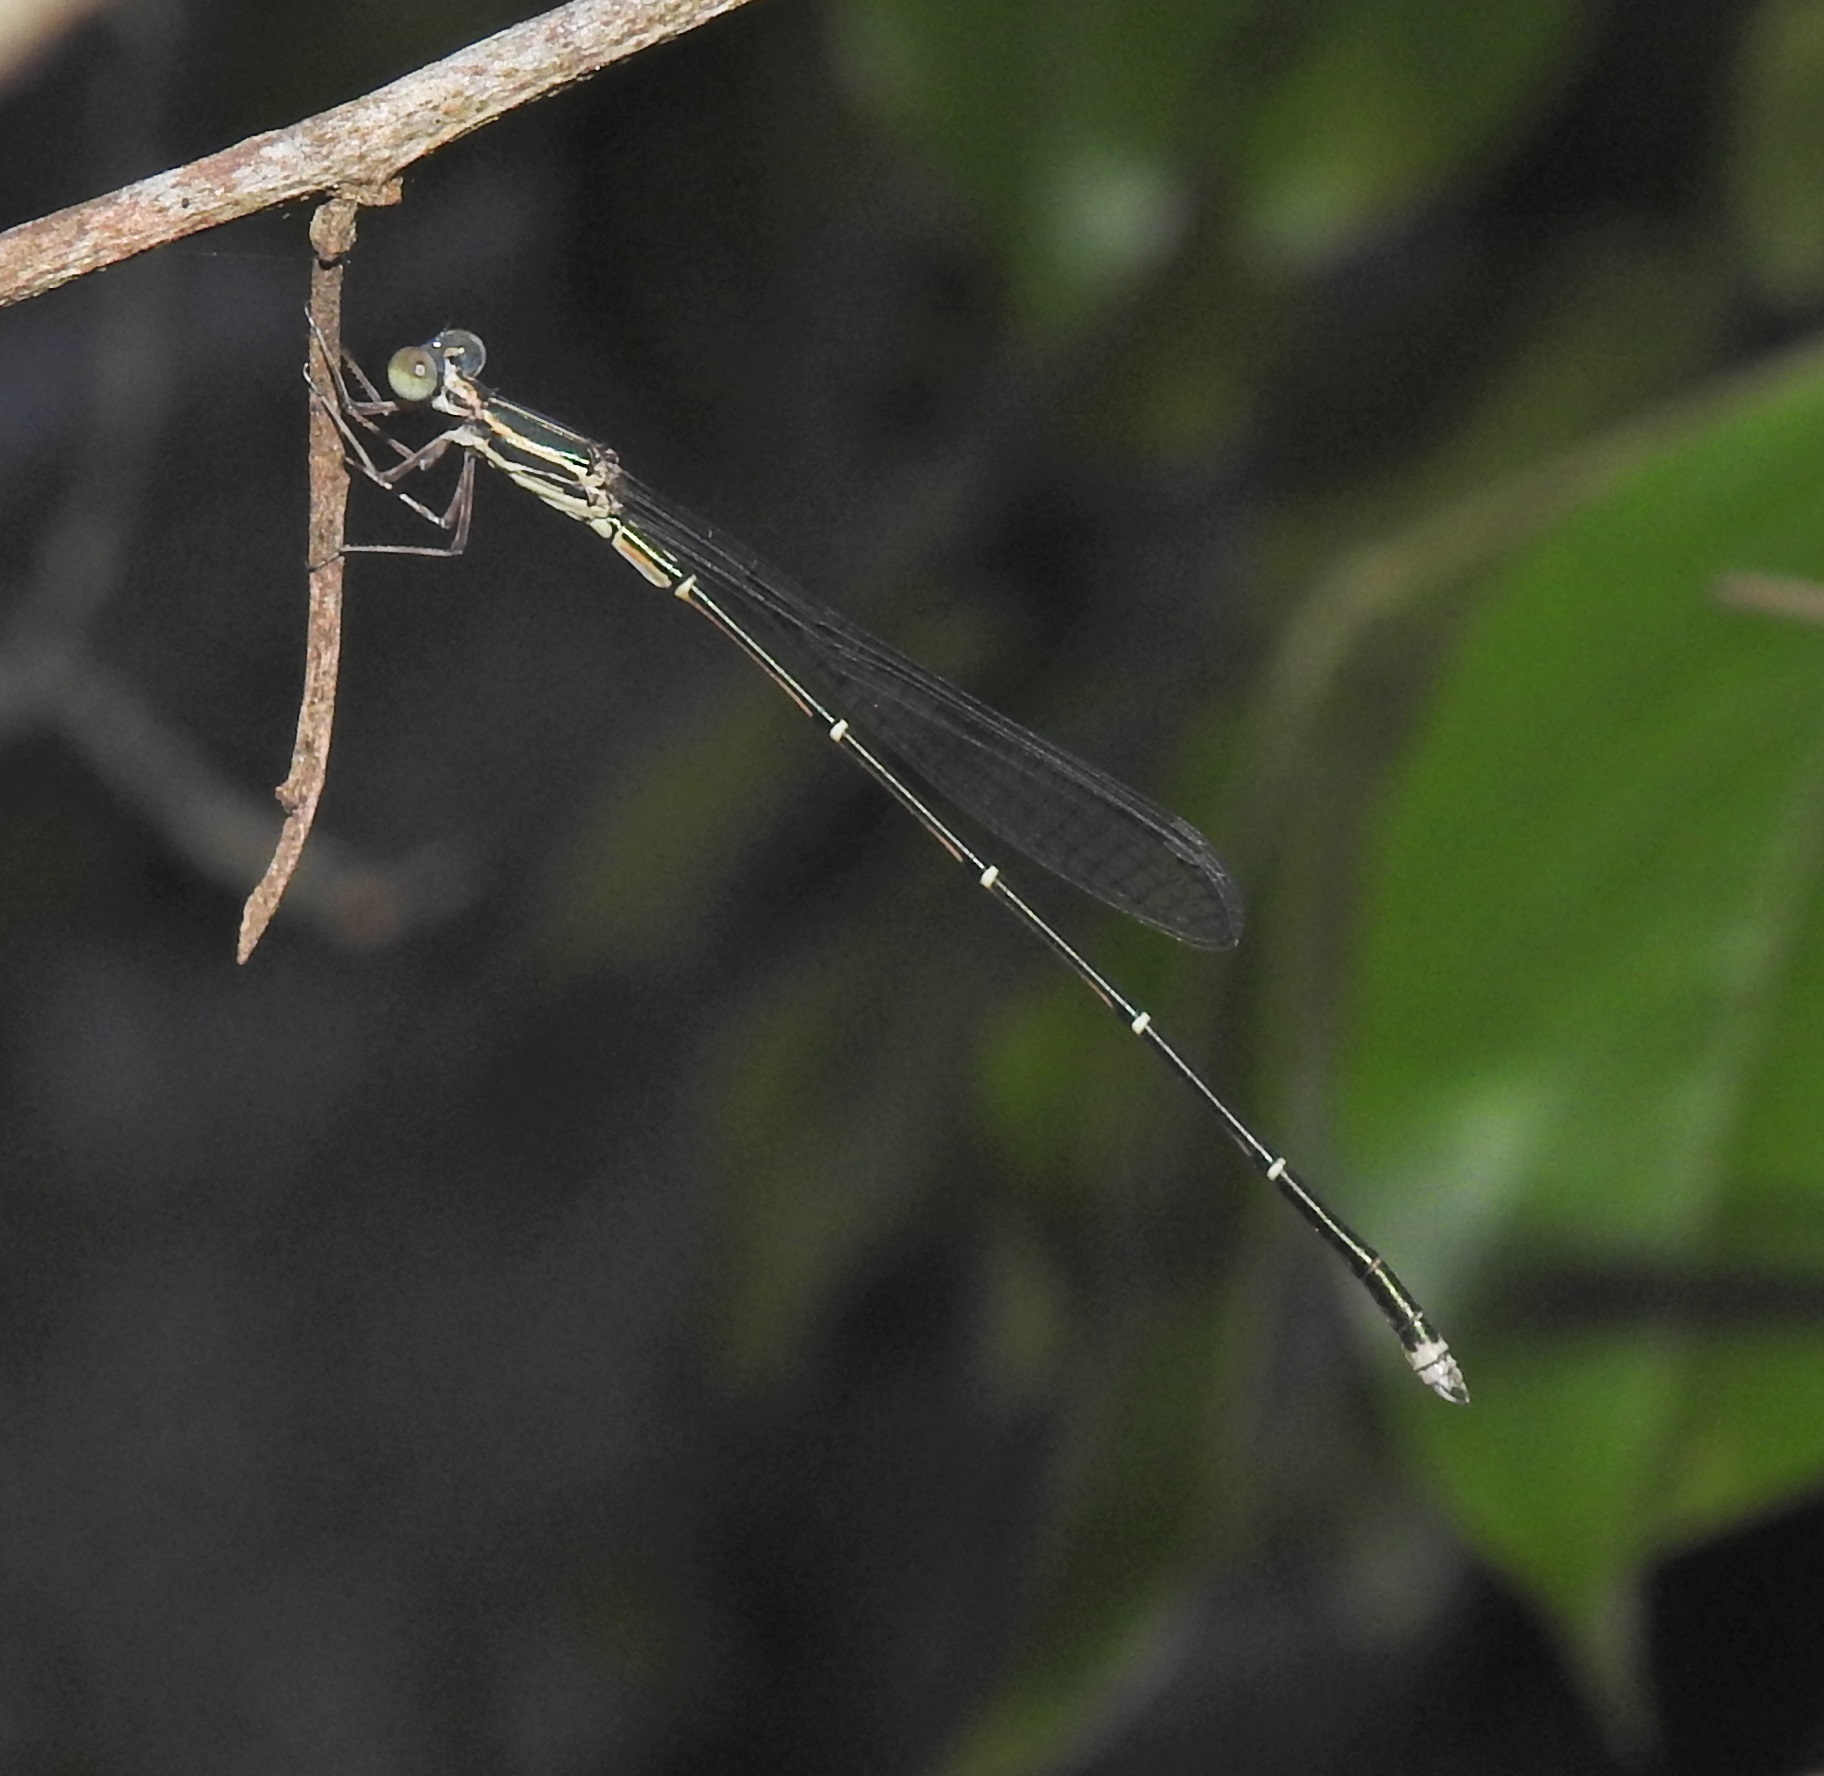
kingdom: Animalia
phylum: Arthropoda
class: Insecta
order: Odonata
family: Isostictidae
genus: Rhadinosticta
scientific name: Rhadinosticta simplex
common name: Powdered wiretail
